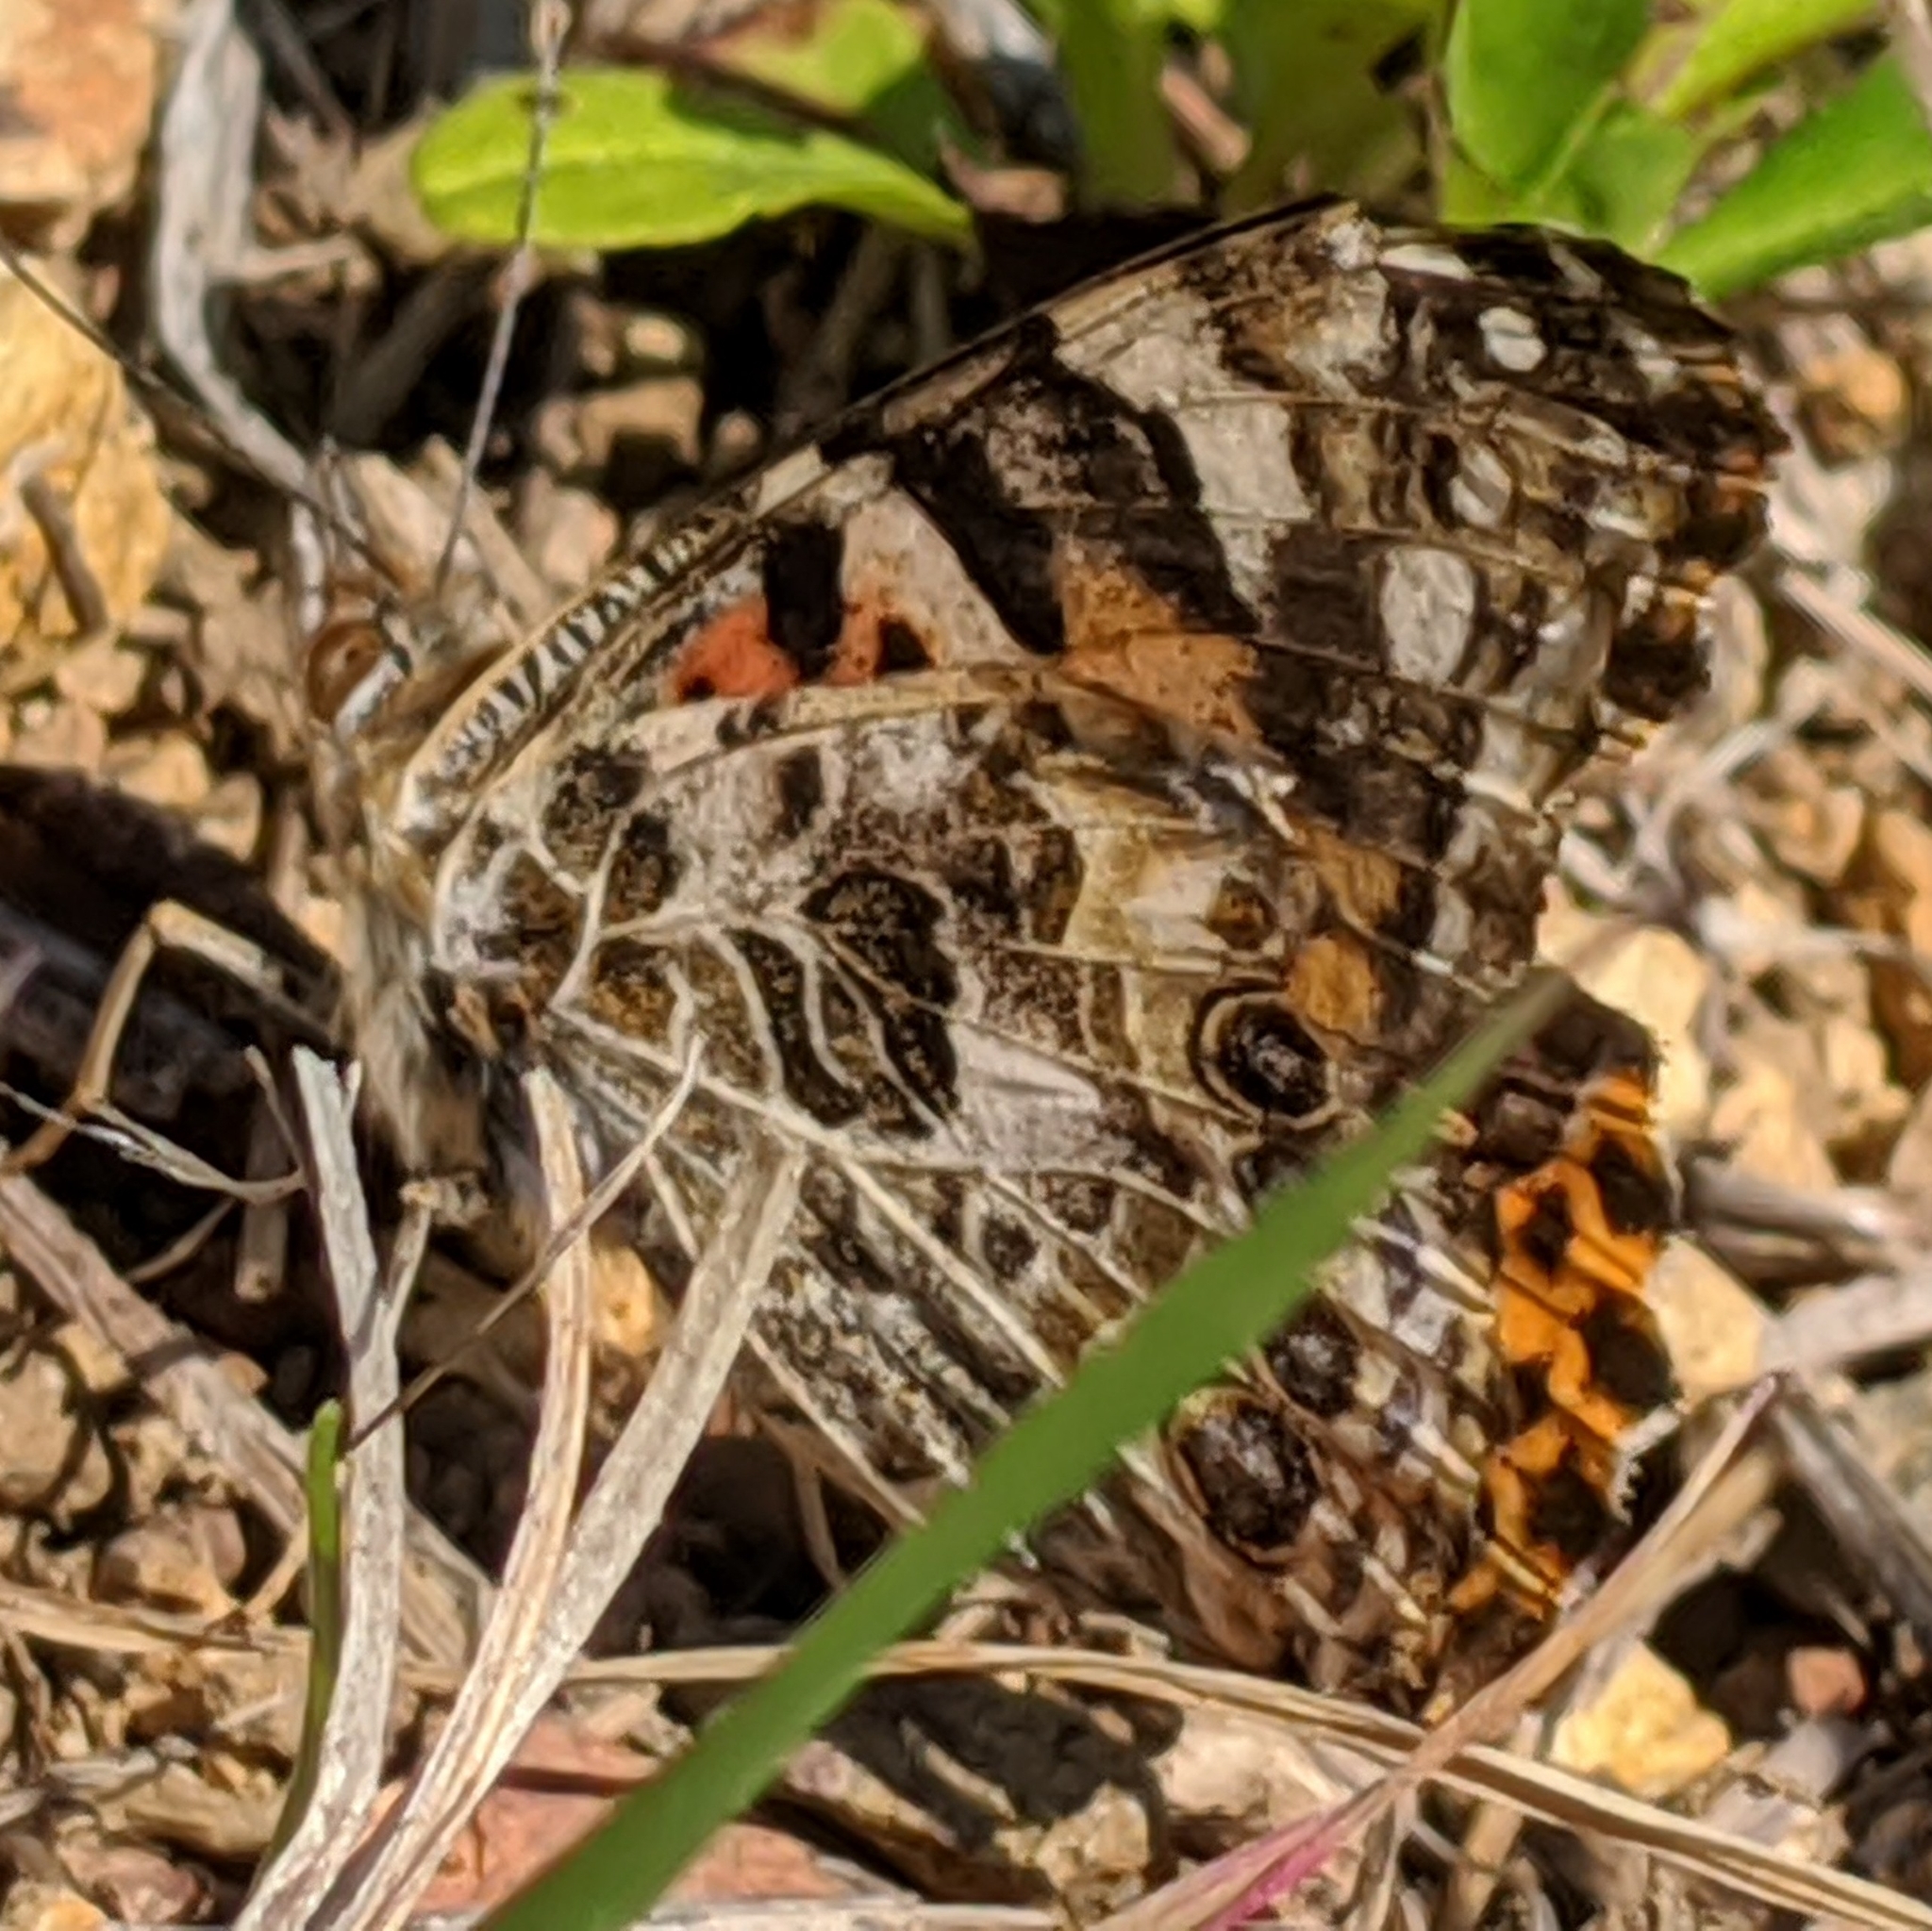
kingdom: Animalia
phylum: Arthropoda
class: Insecta
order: Lepidoptera
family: Nymphalidae
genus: Vanessa
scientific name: Vanessa cardui
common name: Painted lady
